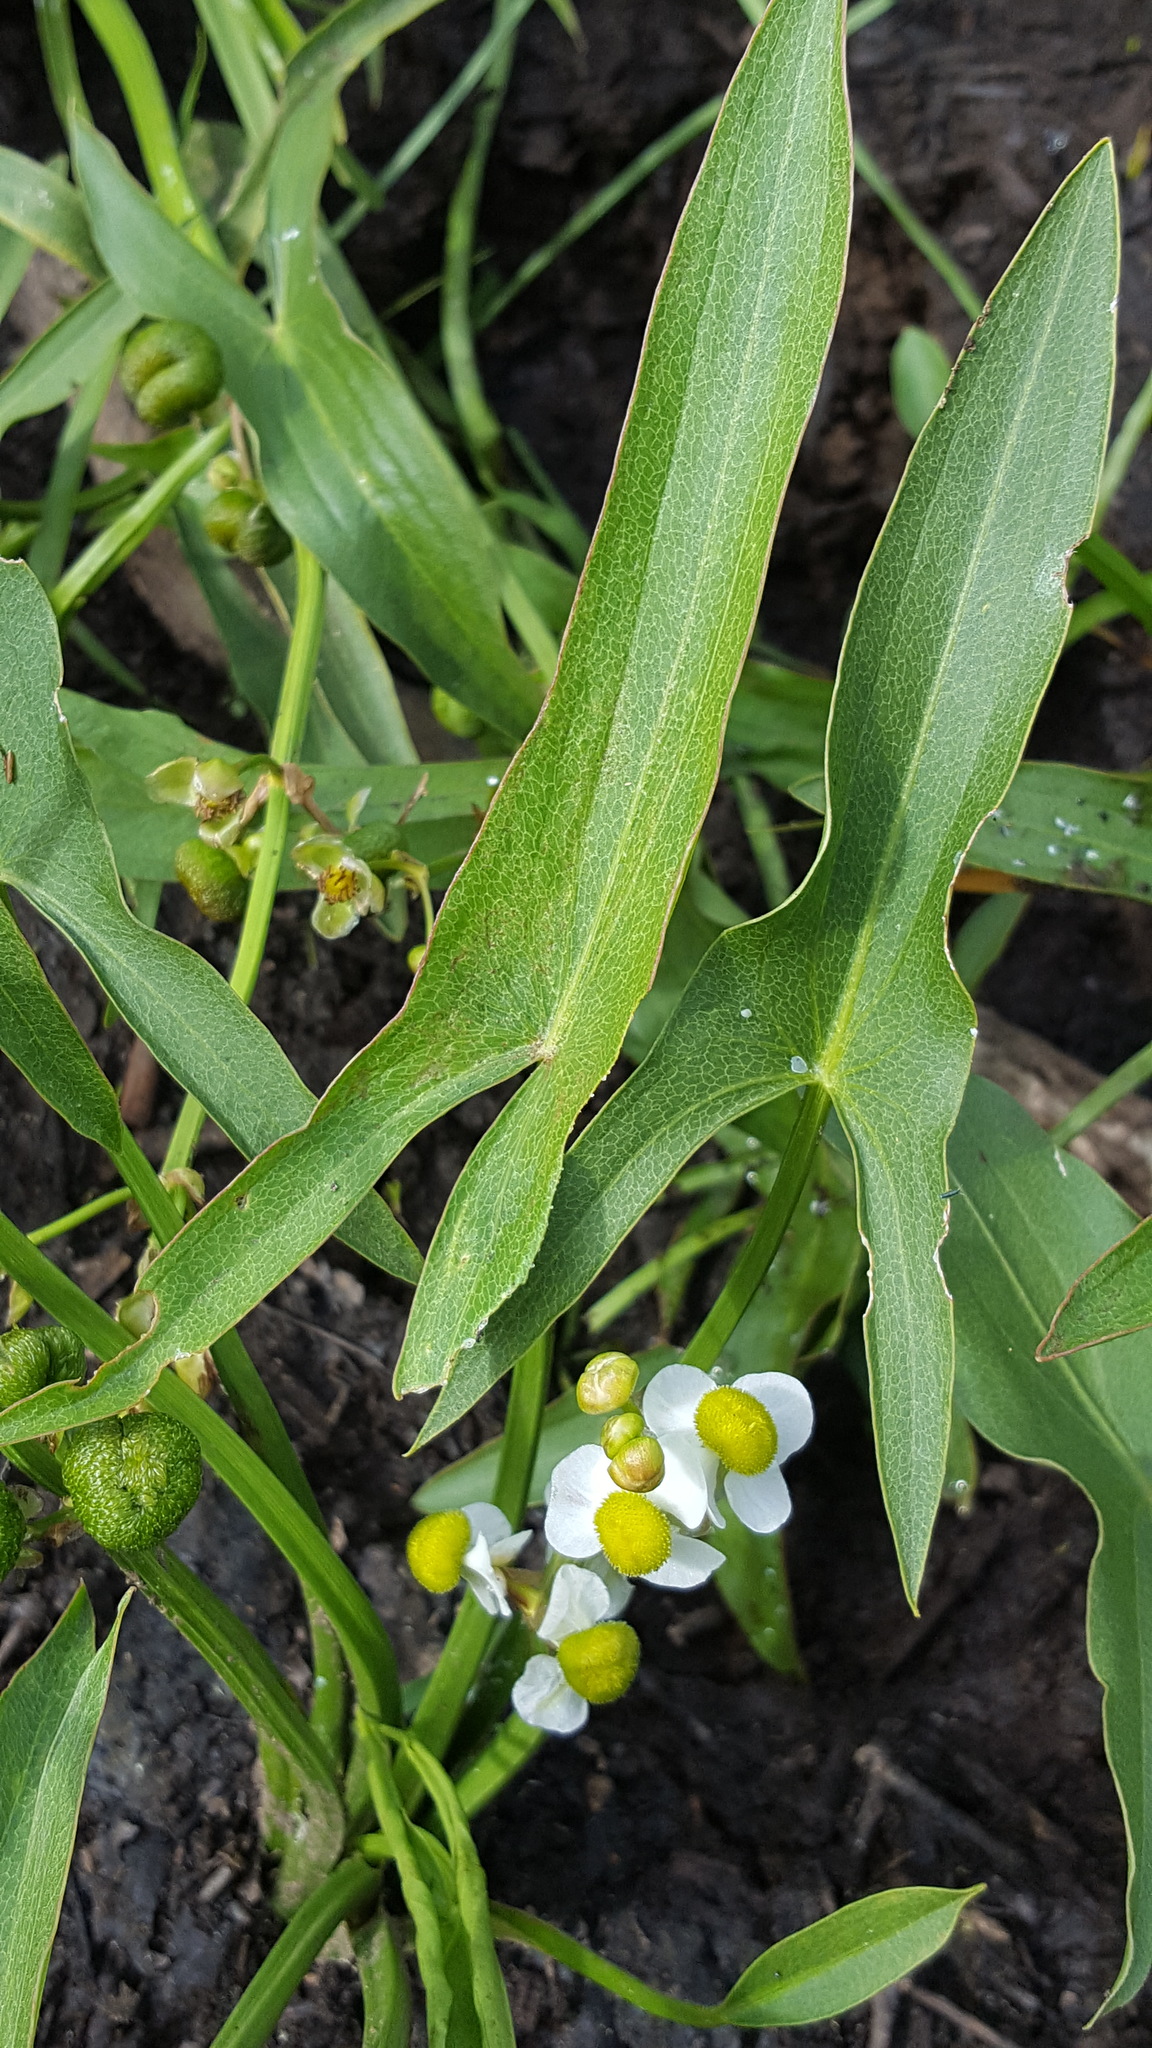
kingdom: Plantae
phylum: Tracheophyta
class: Liliopsida
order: Alismatales
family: Alismataceae
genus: Sagittaria
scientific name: Sagittaria latifolia
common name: Duck-potato
